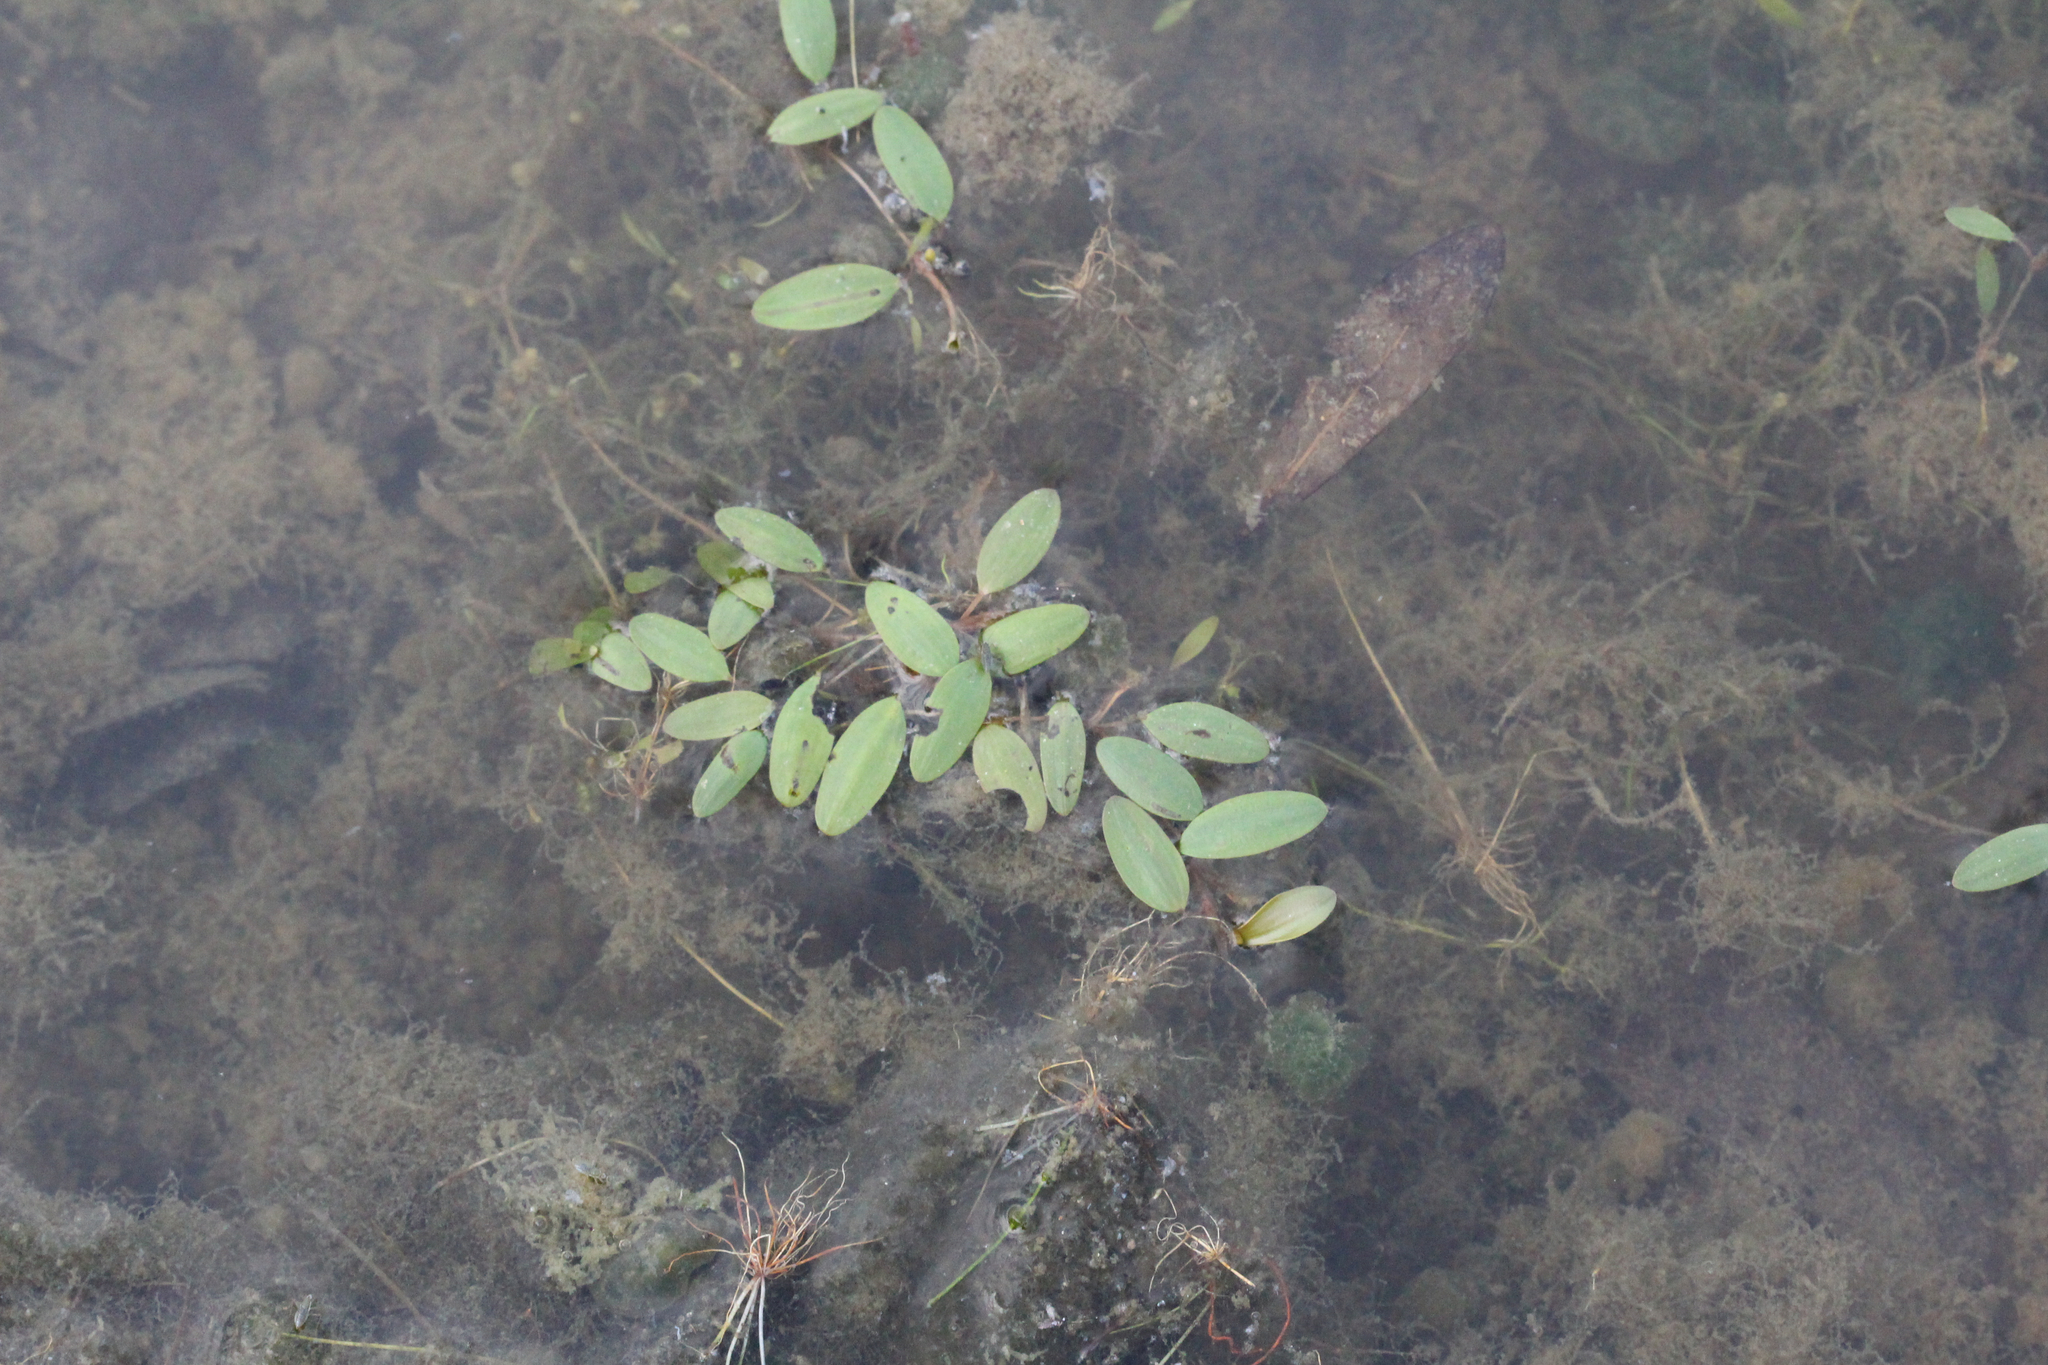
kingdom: Plantae
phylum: Tracheophyta
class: Liliopsida
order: Alismatales
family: Potamogetonaceae
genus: Potamogeton
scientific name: Potamogeton diversifolius
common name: Water-thread pondweed
